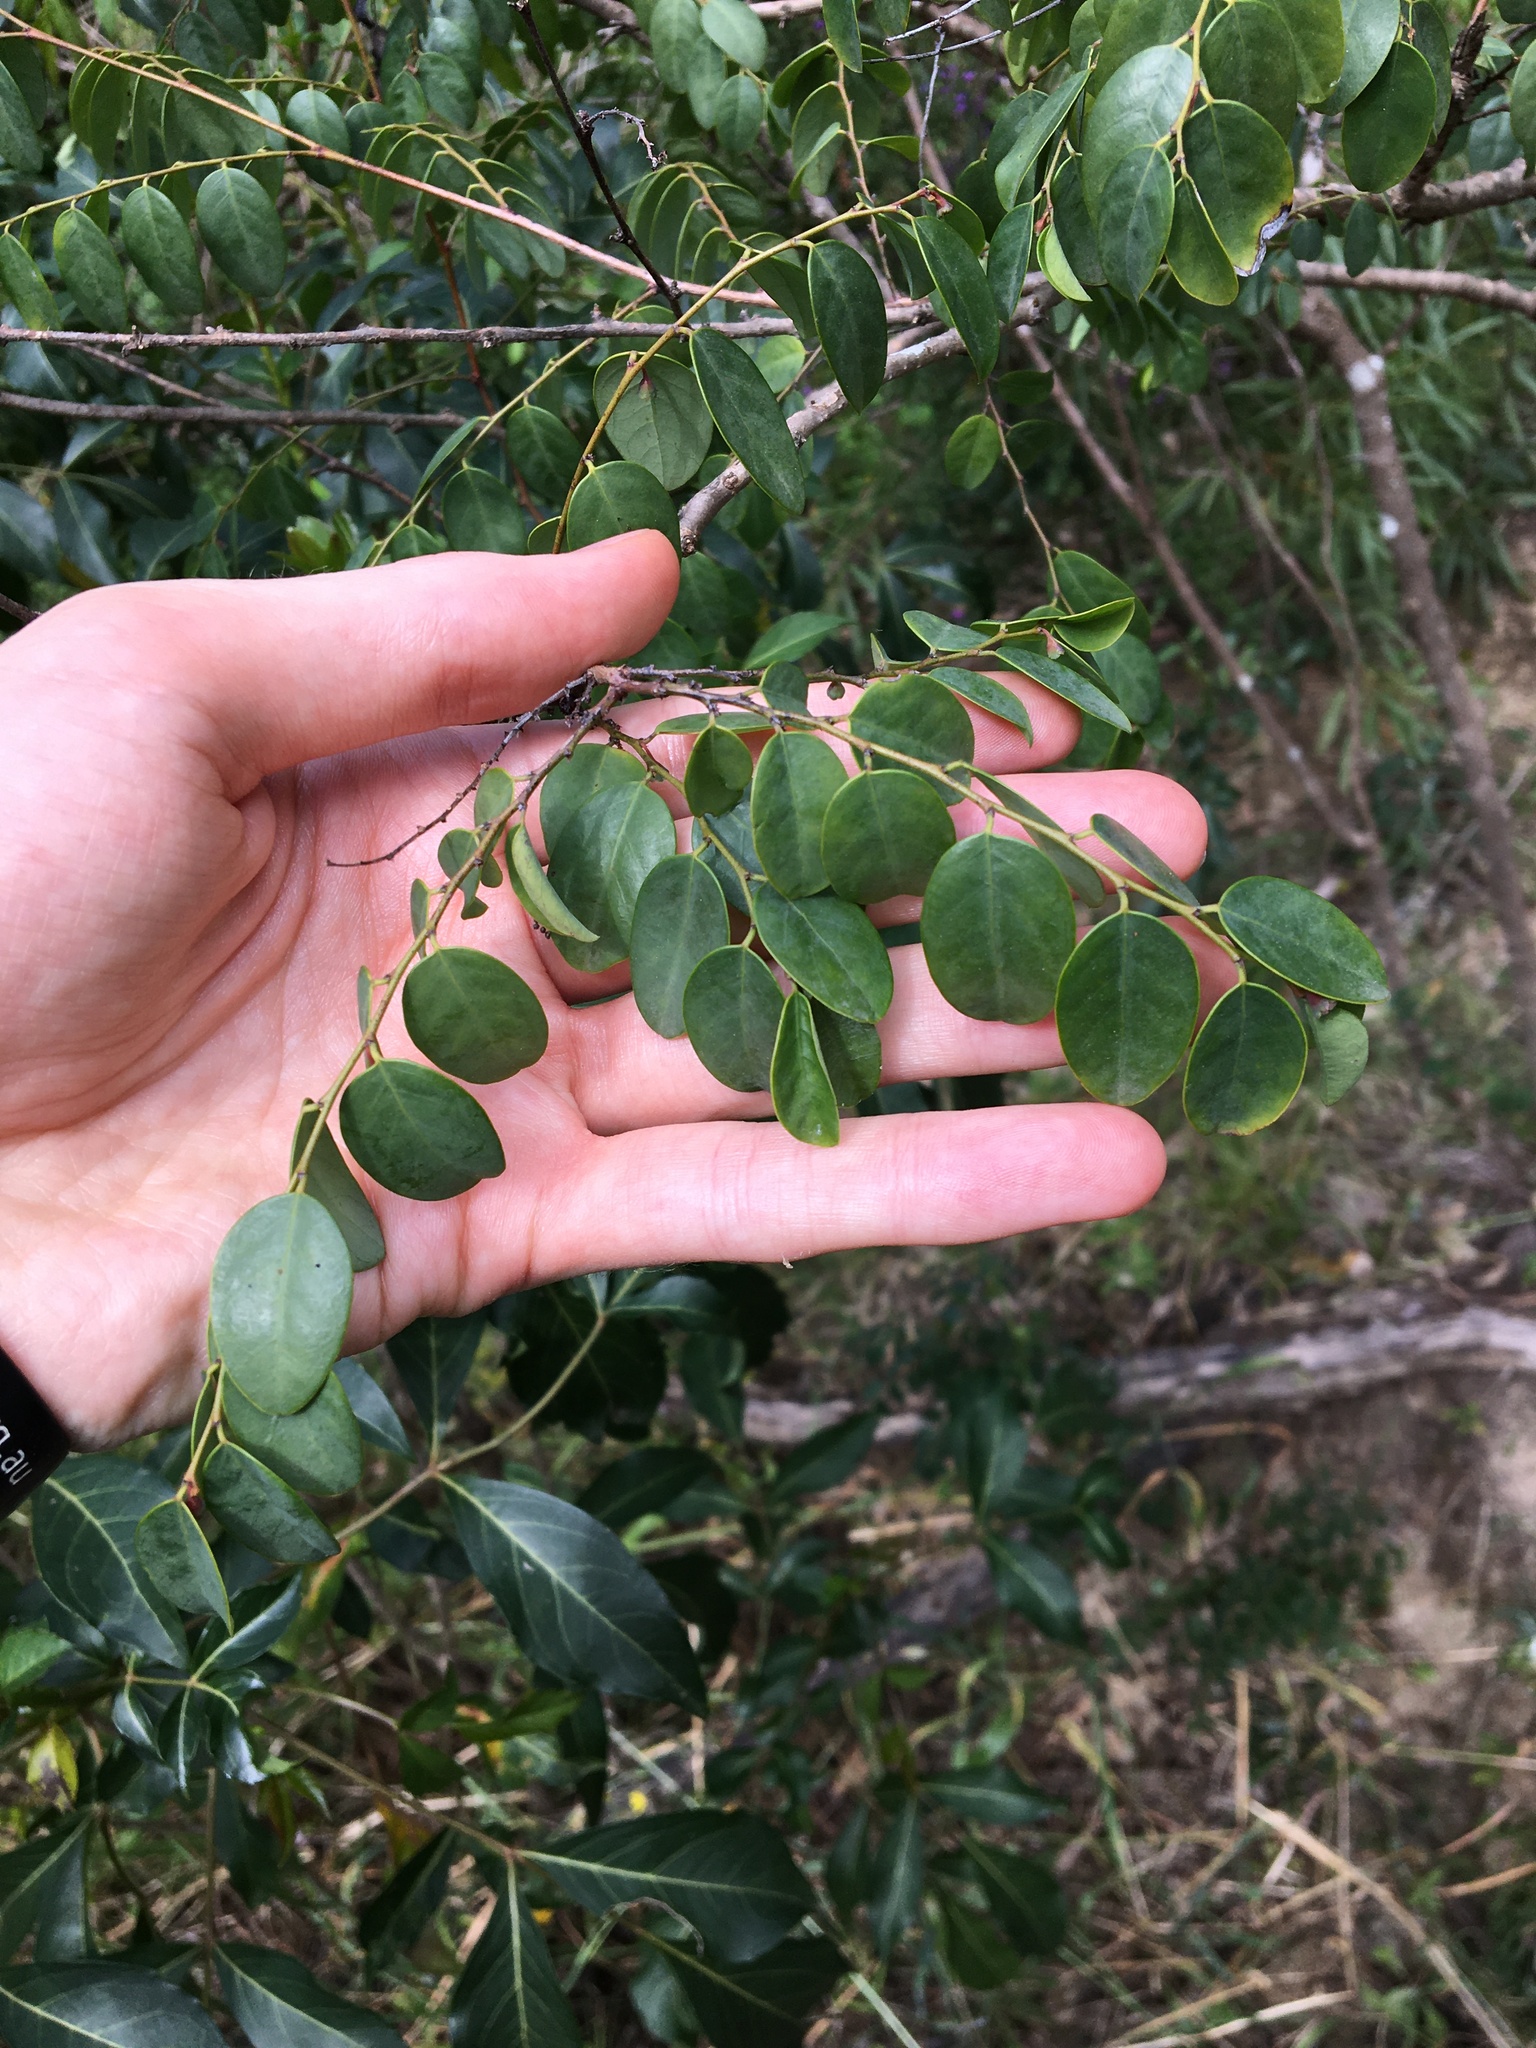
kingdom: Plantae
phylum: Tracheophyta
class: Magnoliopsida
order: Malpighiales
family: Phyllanthaceae
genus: Breynia
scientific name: Breynia oblongifolia
